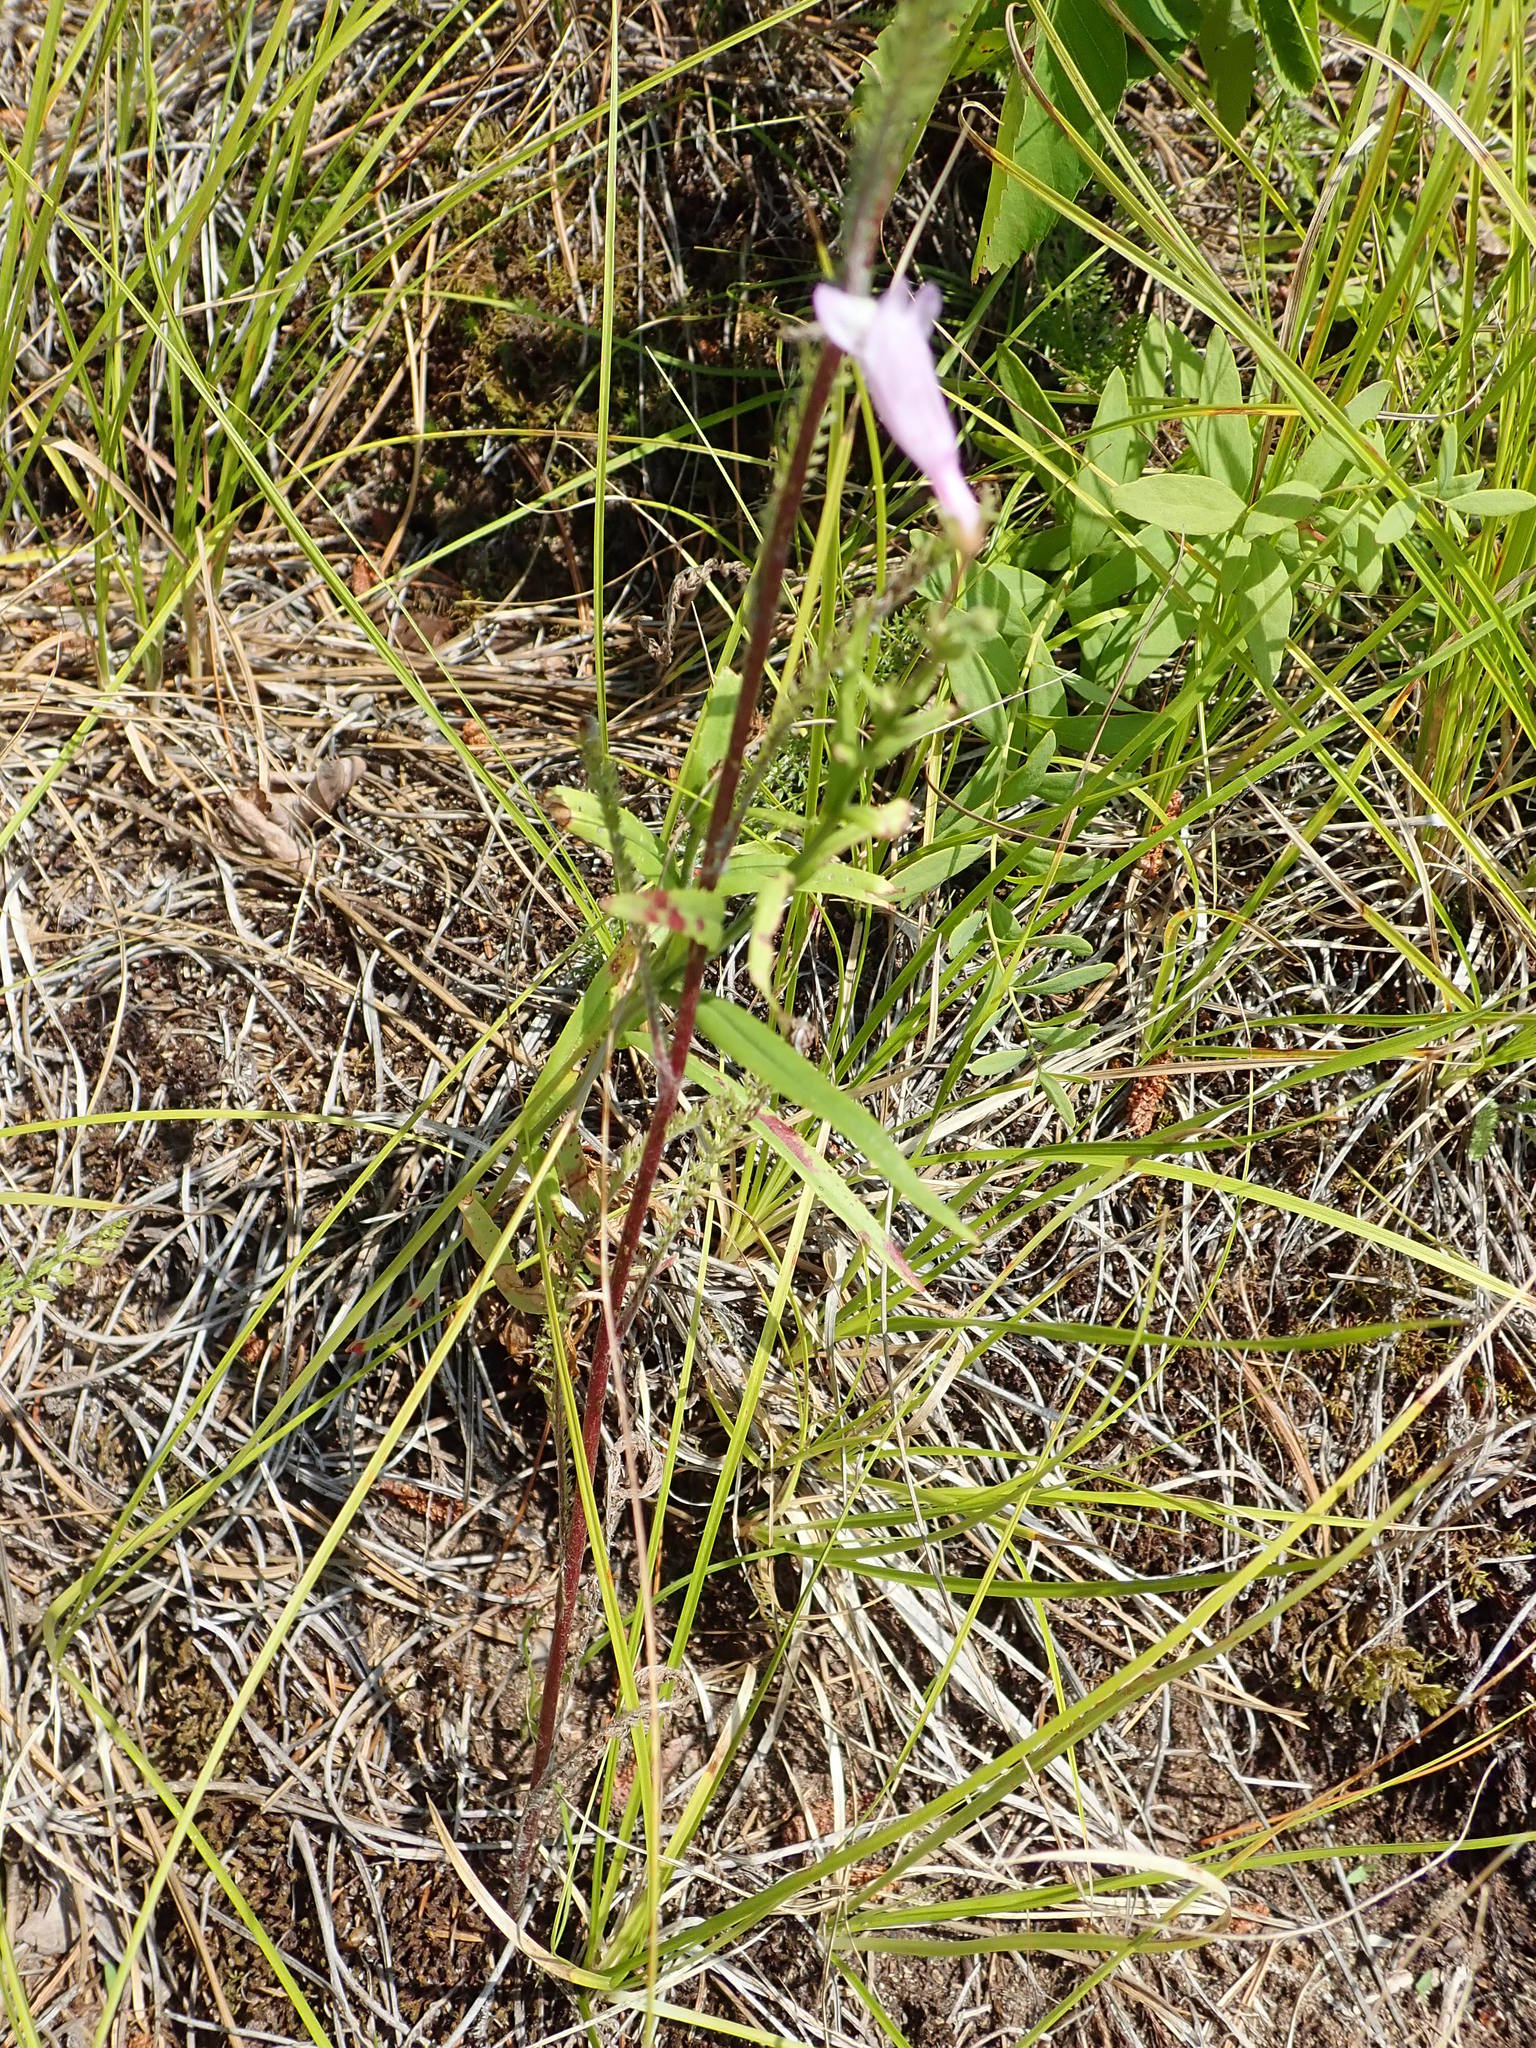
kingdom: Plantae
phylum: Tracheophyta
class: Magnoliopsida
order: Lamiales
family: Plantaginaceae
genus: Penstemon
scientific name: Penstemon gracilis
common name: Slender beardtongue
